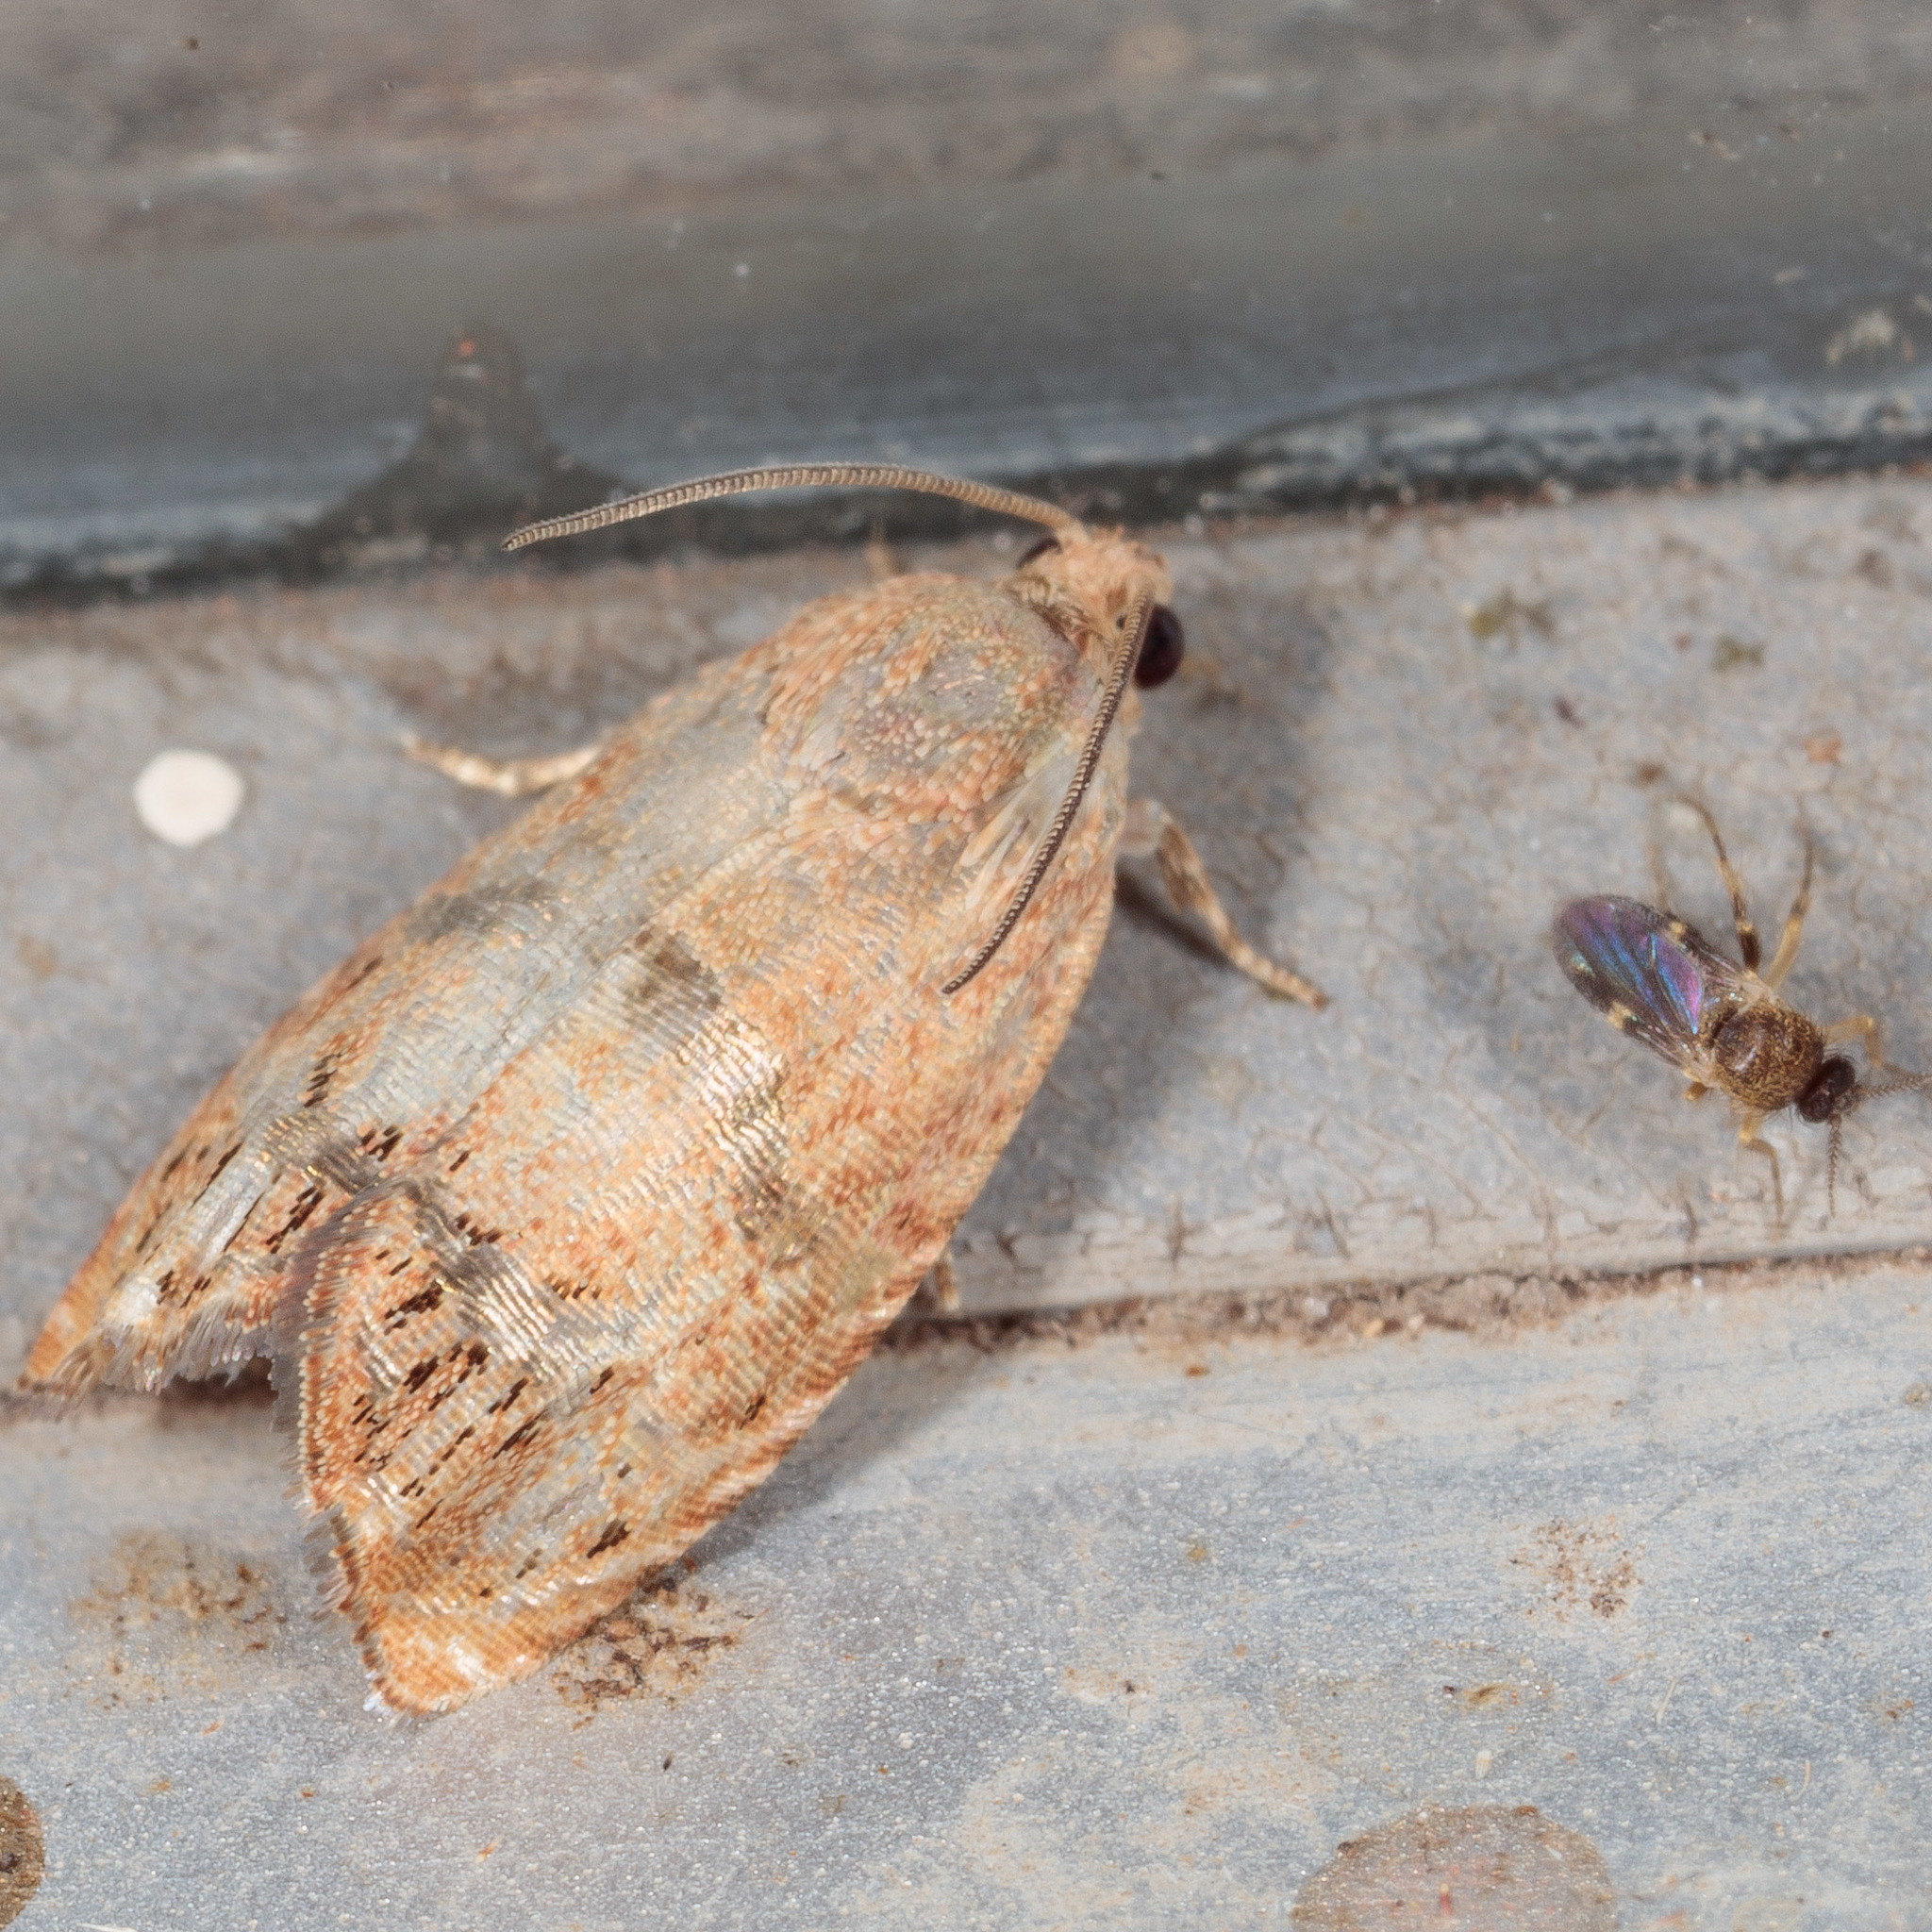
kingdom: Animalia
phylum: Arthropoda
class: Insecta
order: Lepidoptera
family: Tortricidae
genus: Cydia
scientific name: Cydia latiferreana
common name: Filbertworm moth
